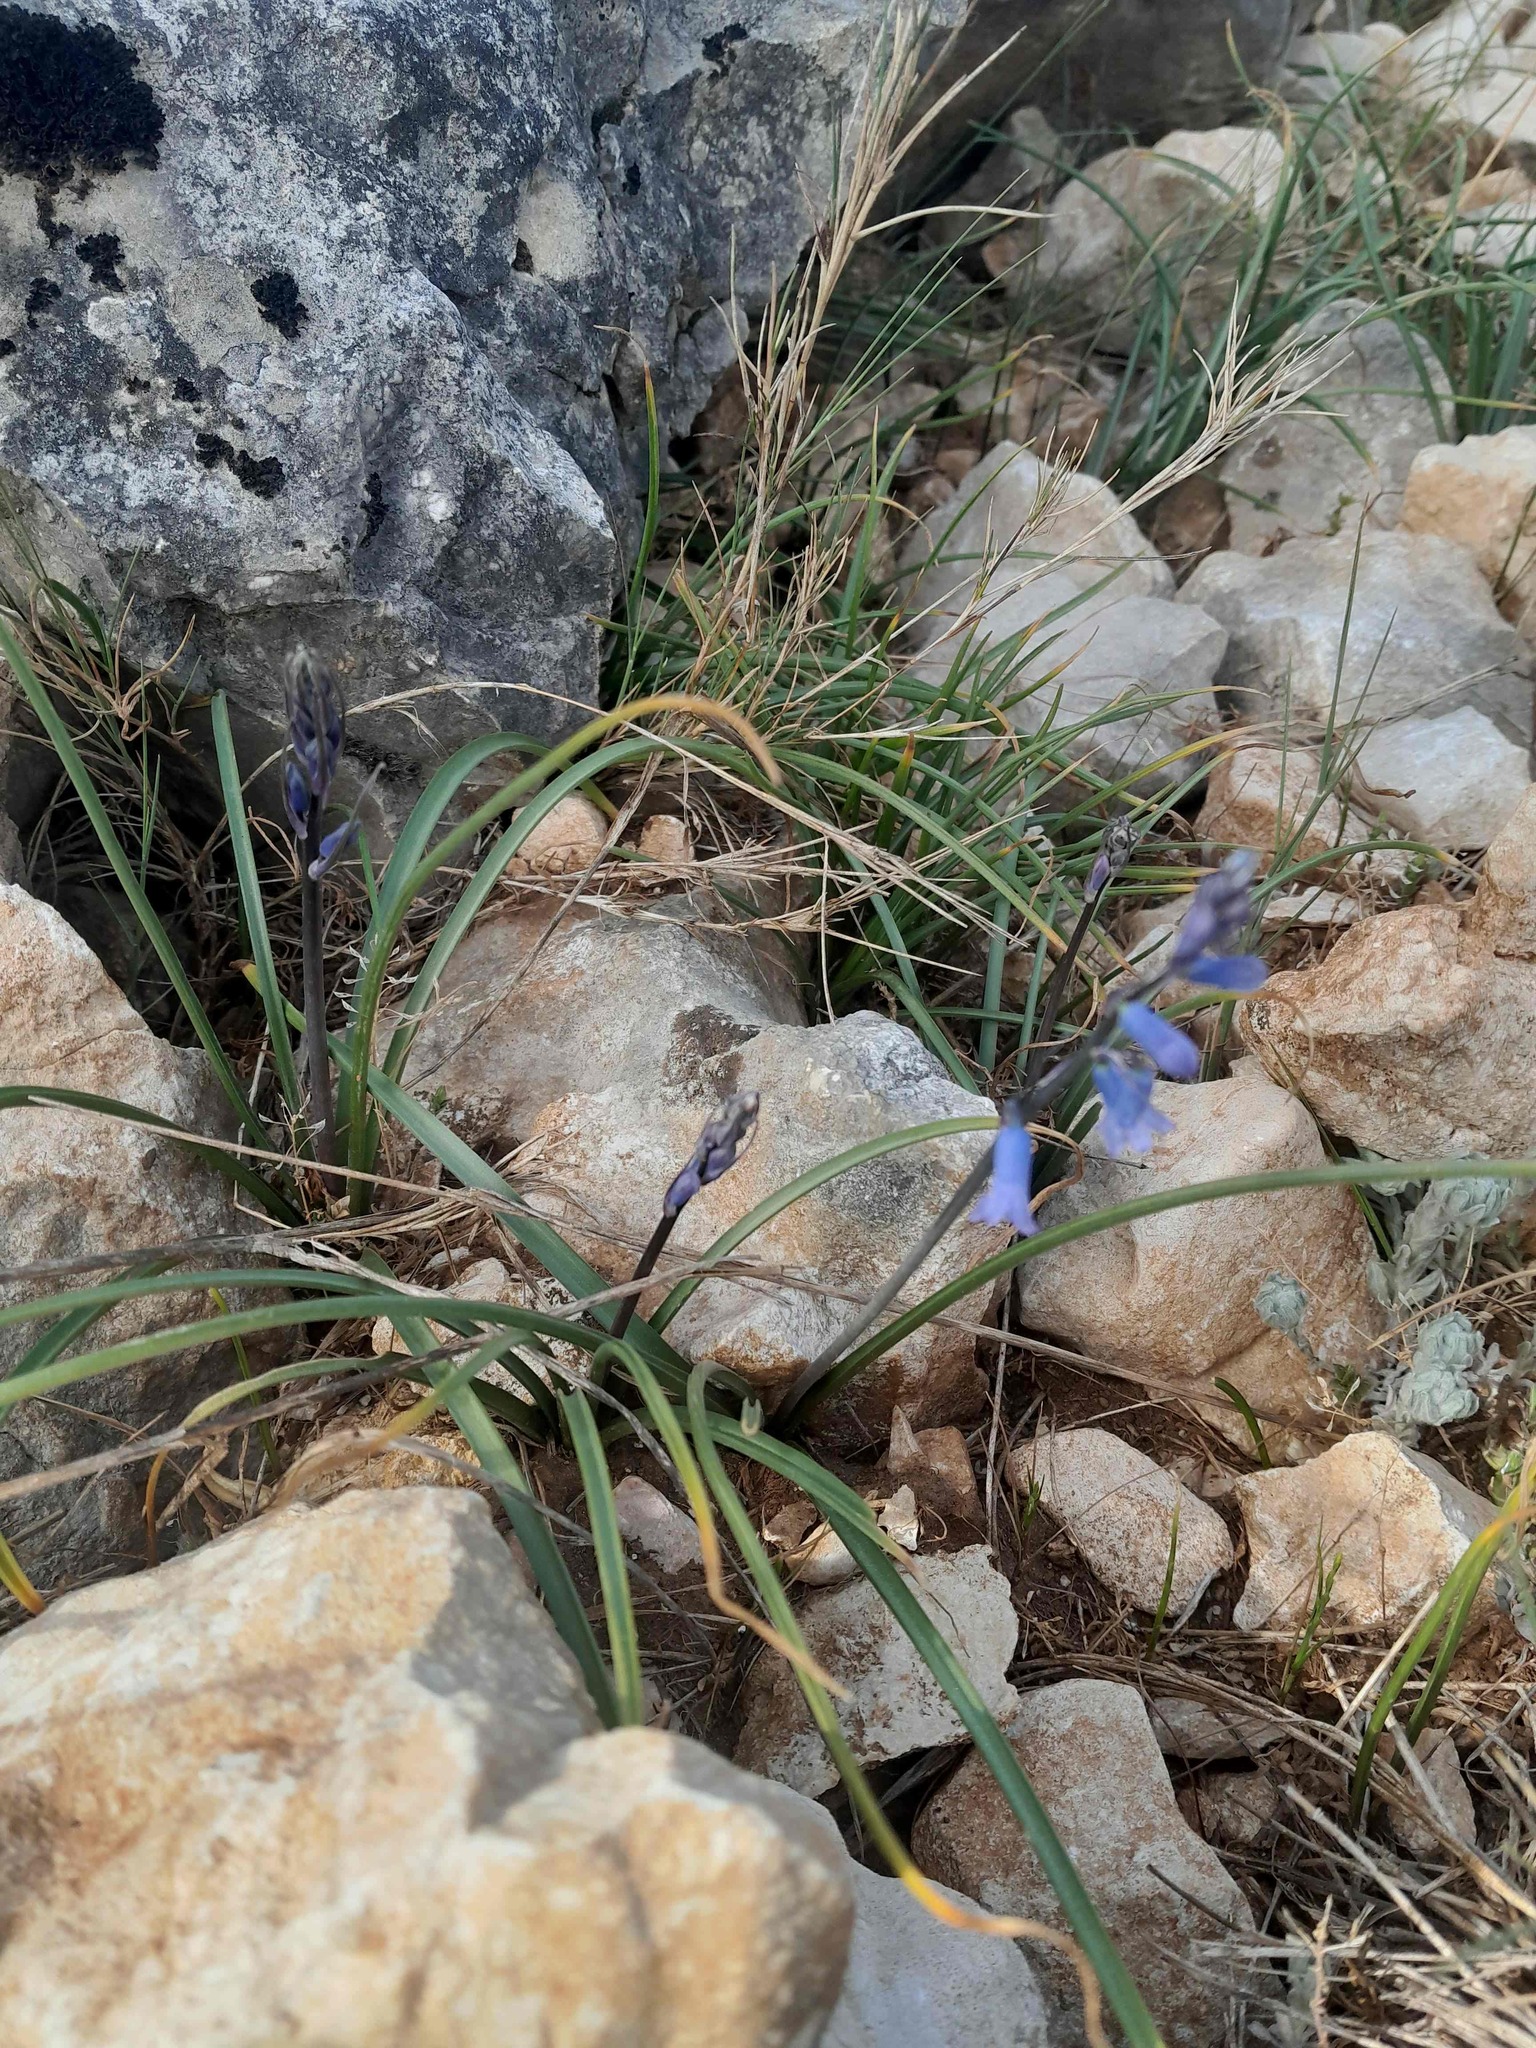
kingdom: Plantae
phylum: Tracheophyta
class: Liliopsida
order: Asparagales
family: Asparagaceae
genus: Brimeura
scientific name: Brimeura amethystina
